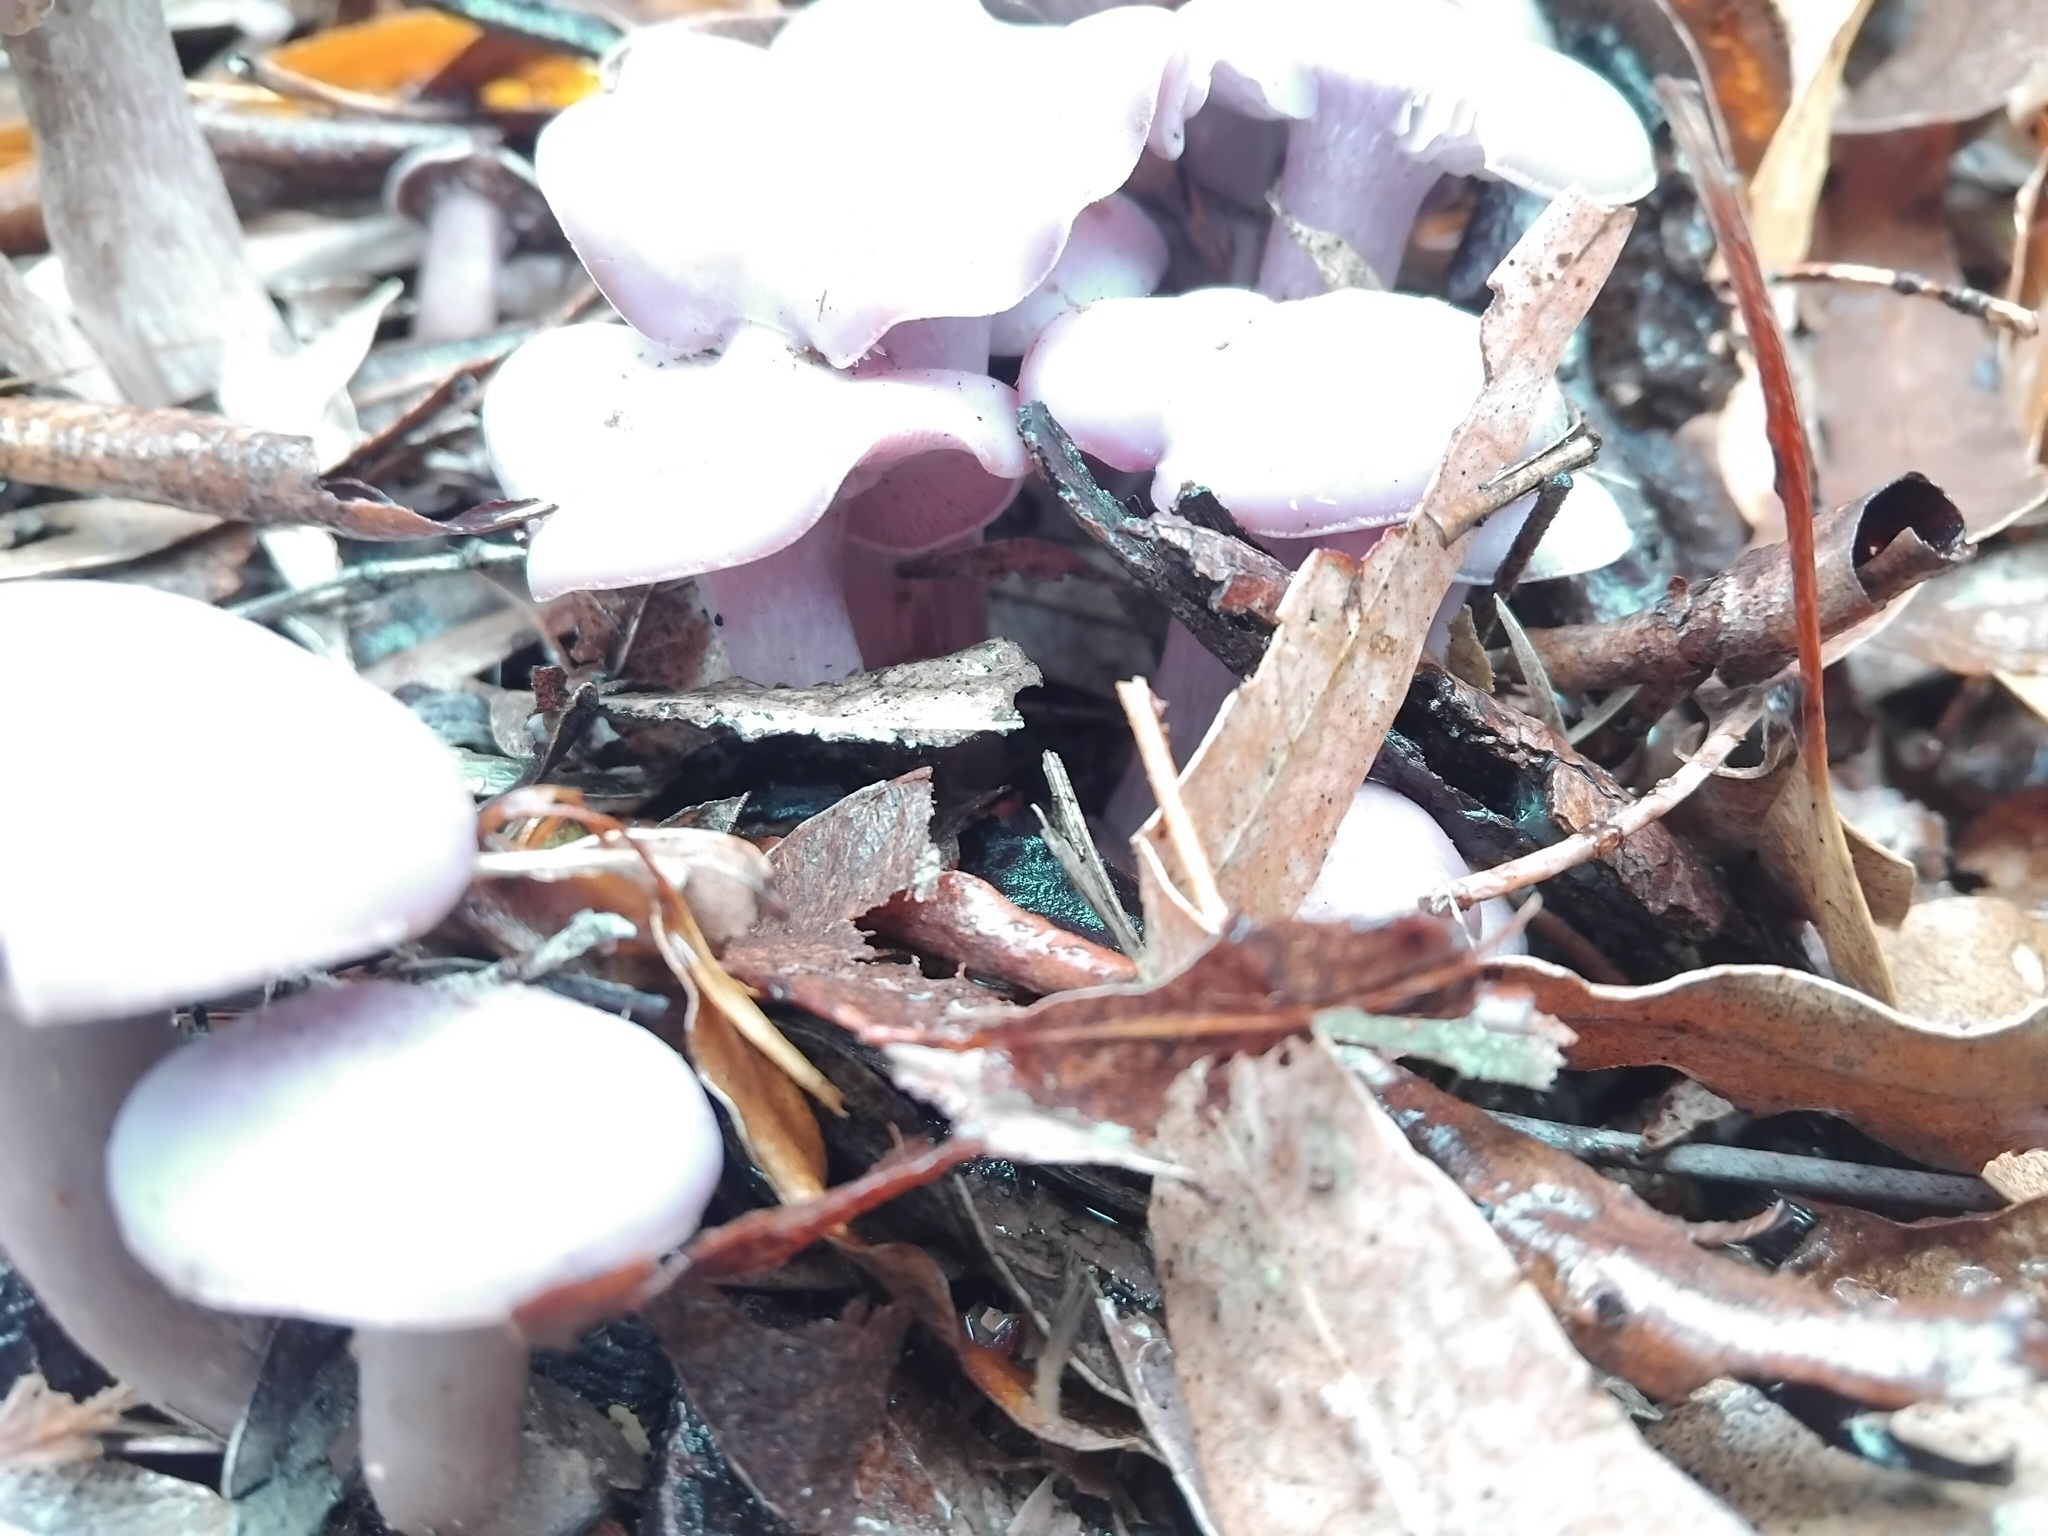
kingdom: Fungi
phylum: Basidiomycota
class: Agaricomycetes
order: Agaricales
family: Tricholomataceae
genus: Lepista
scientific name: Lepista sublilacina
